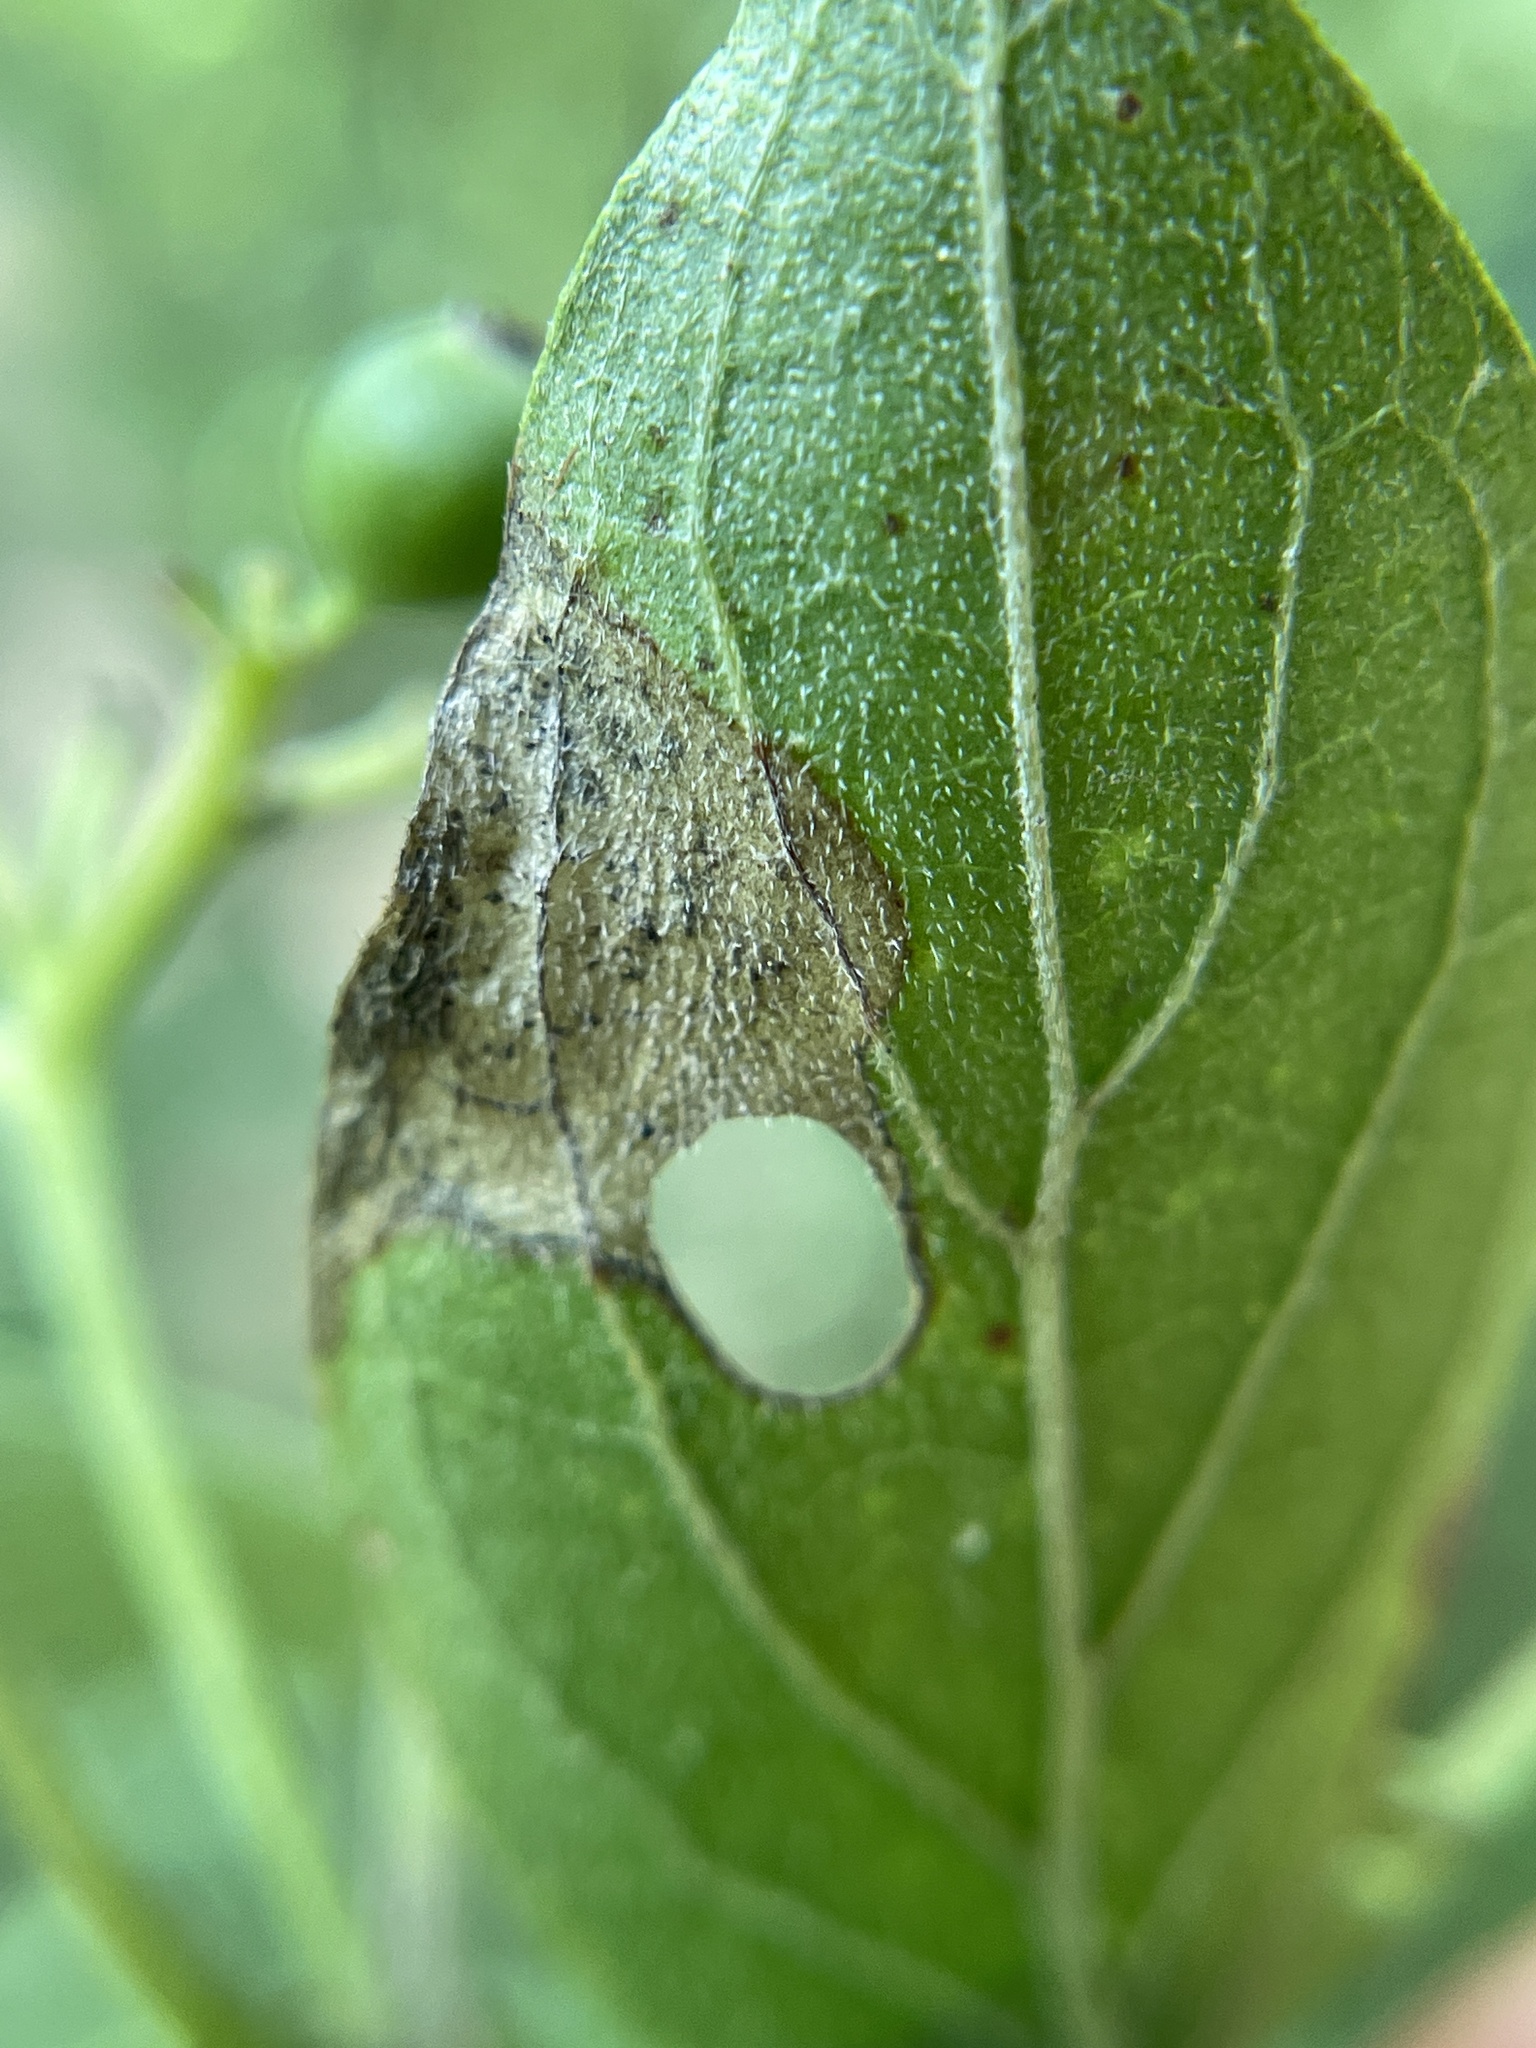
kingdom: Animalia
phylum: Arthropoda
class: Insecta
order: Lepidoptera
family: Heliozelidae
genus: Antispila
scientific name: Antispila freemani
